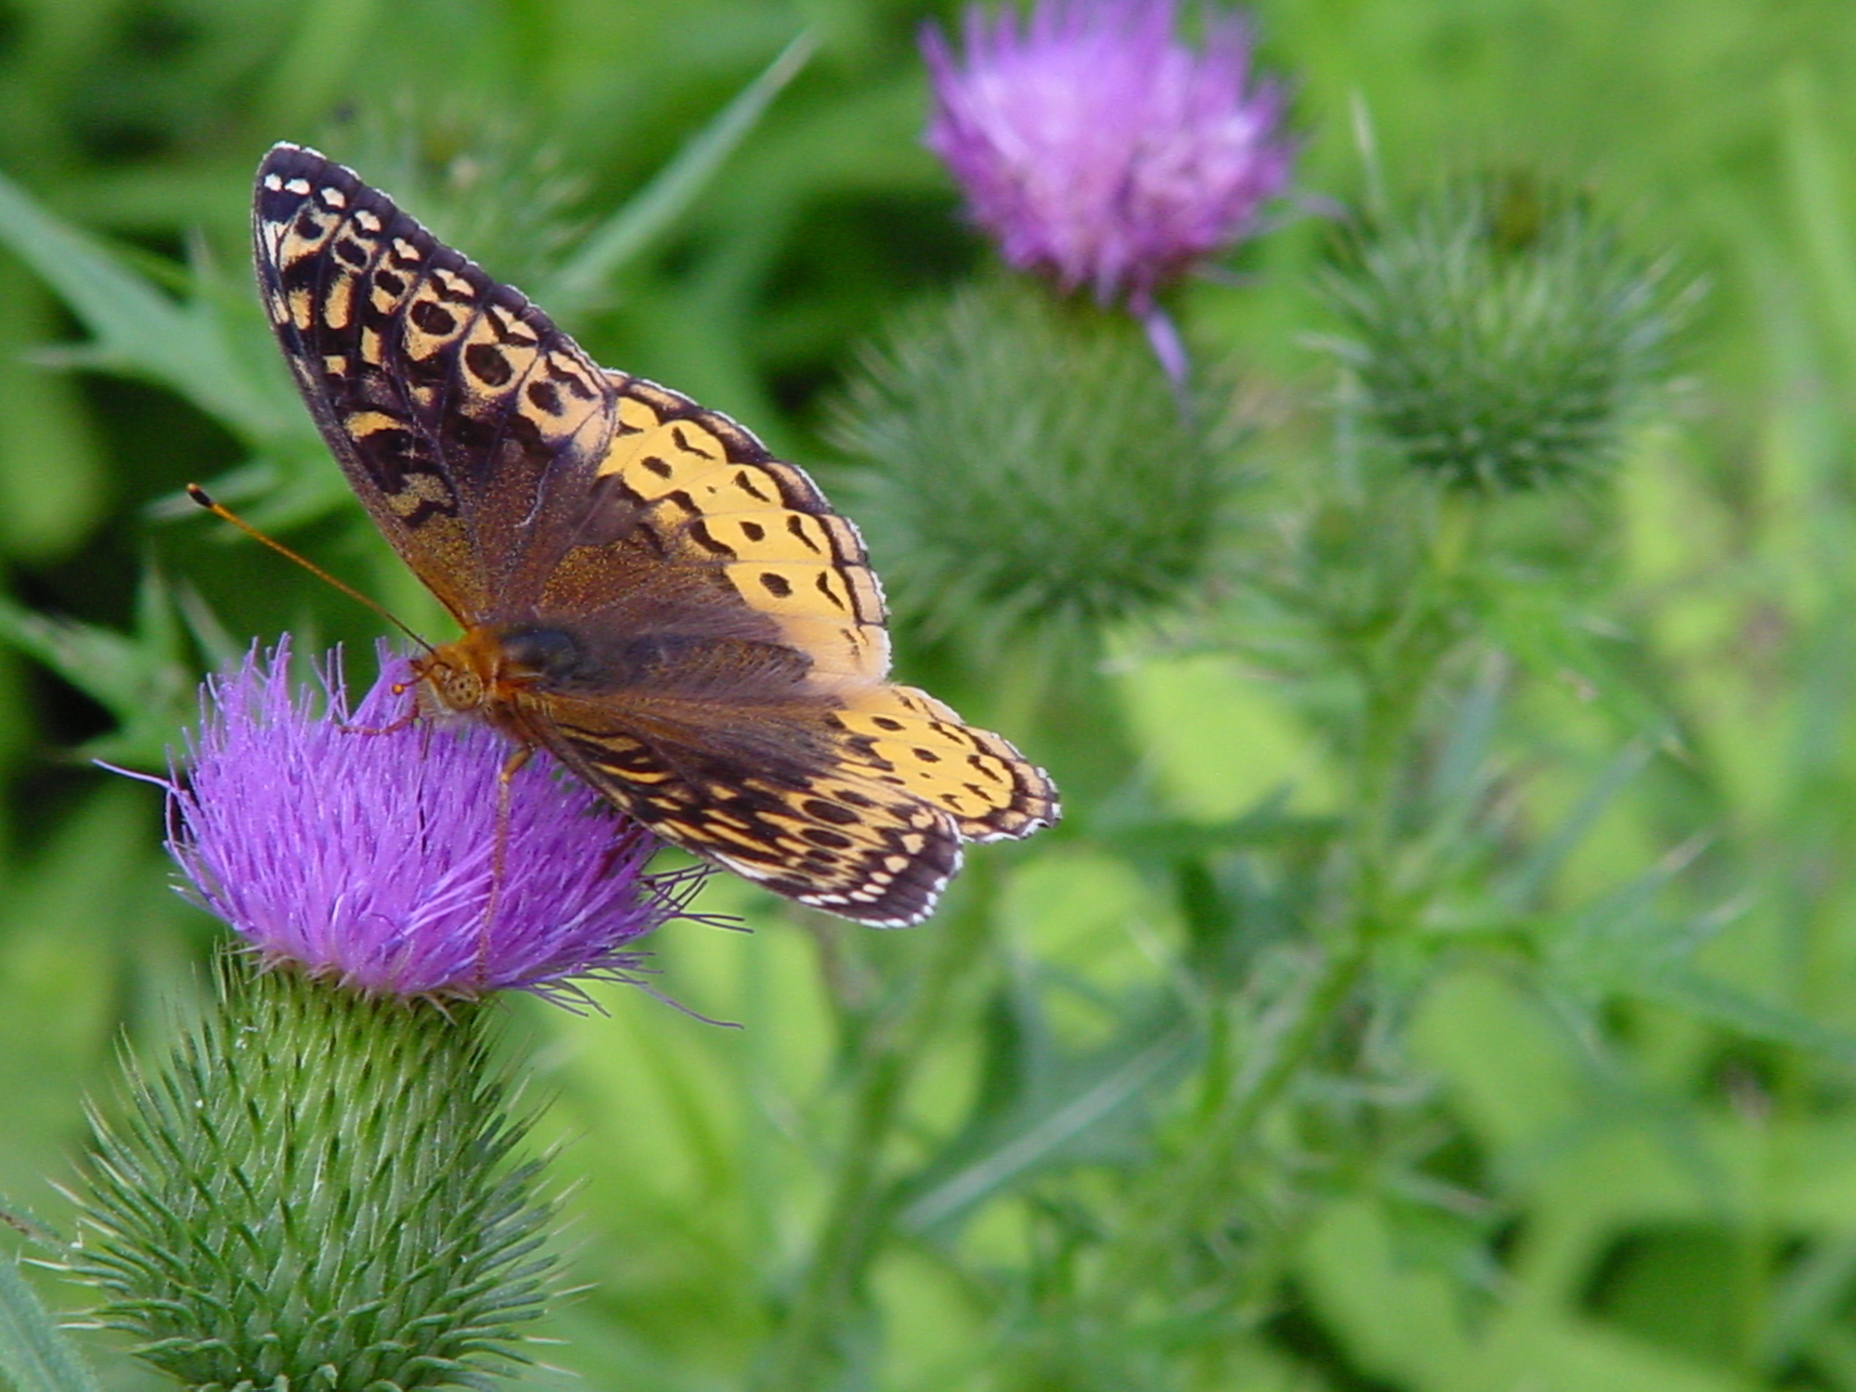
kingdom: Animalia
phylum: Arthropoda
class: Insecta
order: Lepidoptera
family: Nymphalidae
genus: Speyeria
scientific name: Speyeria cybele
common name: Great spangled fritillary
